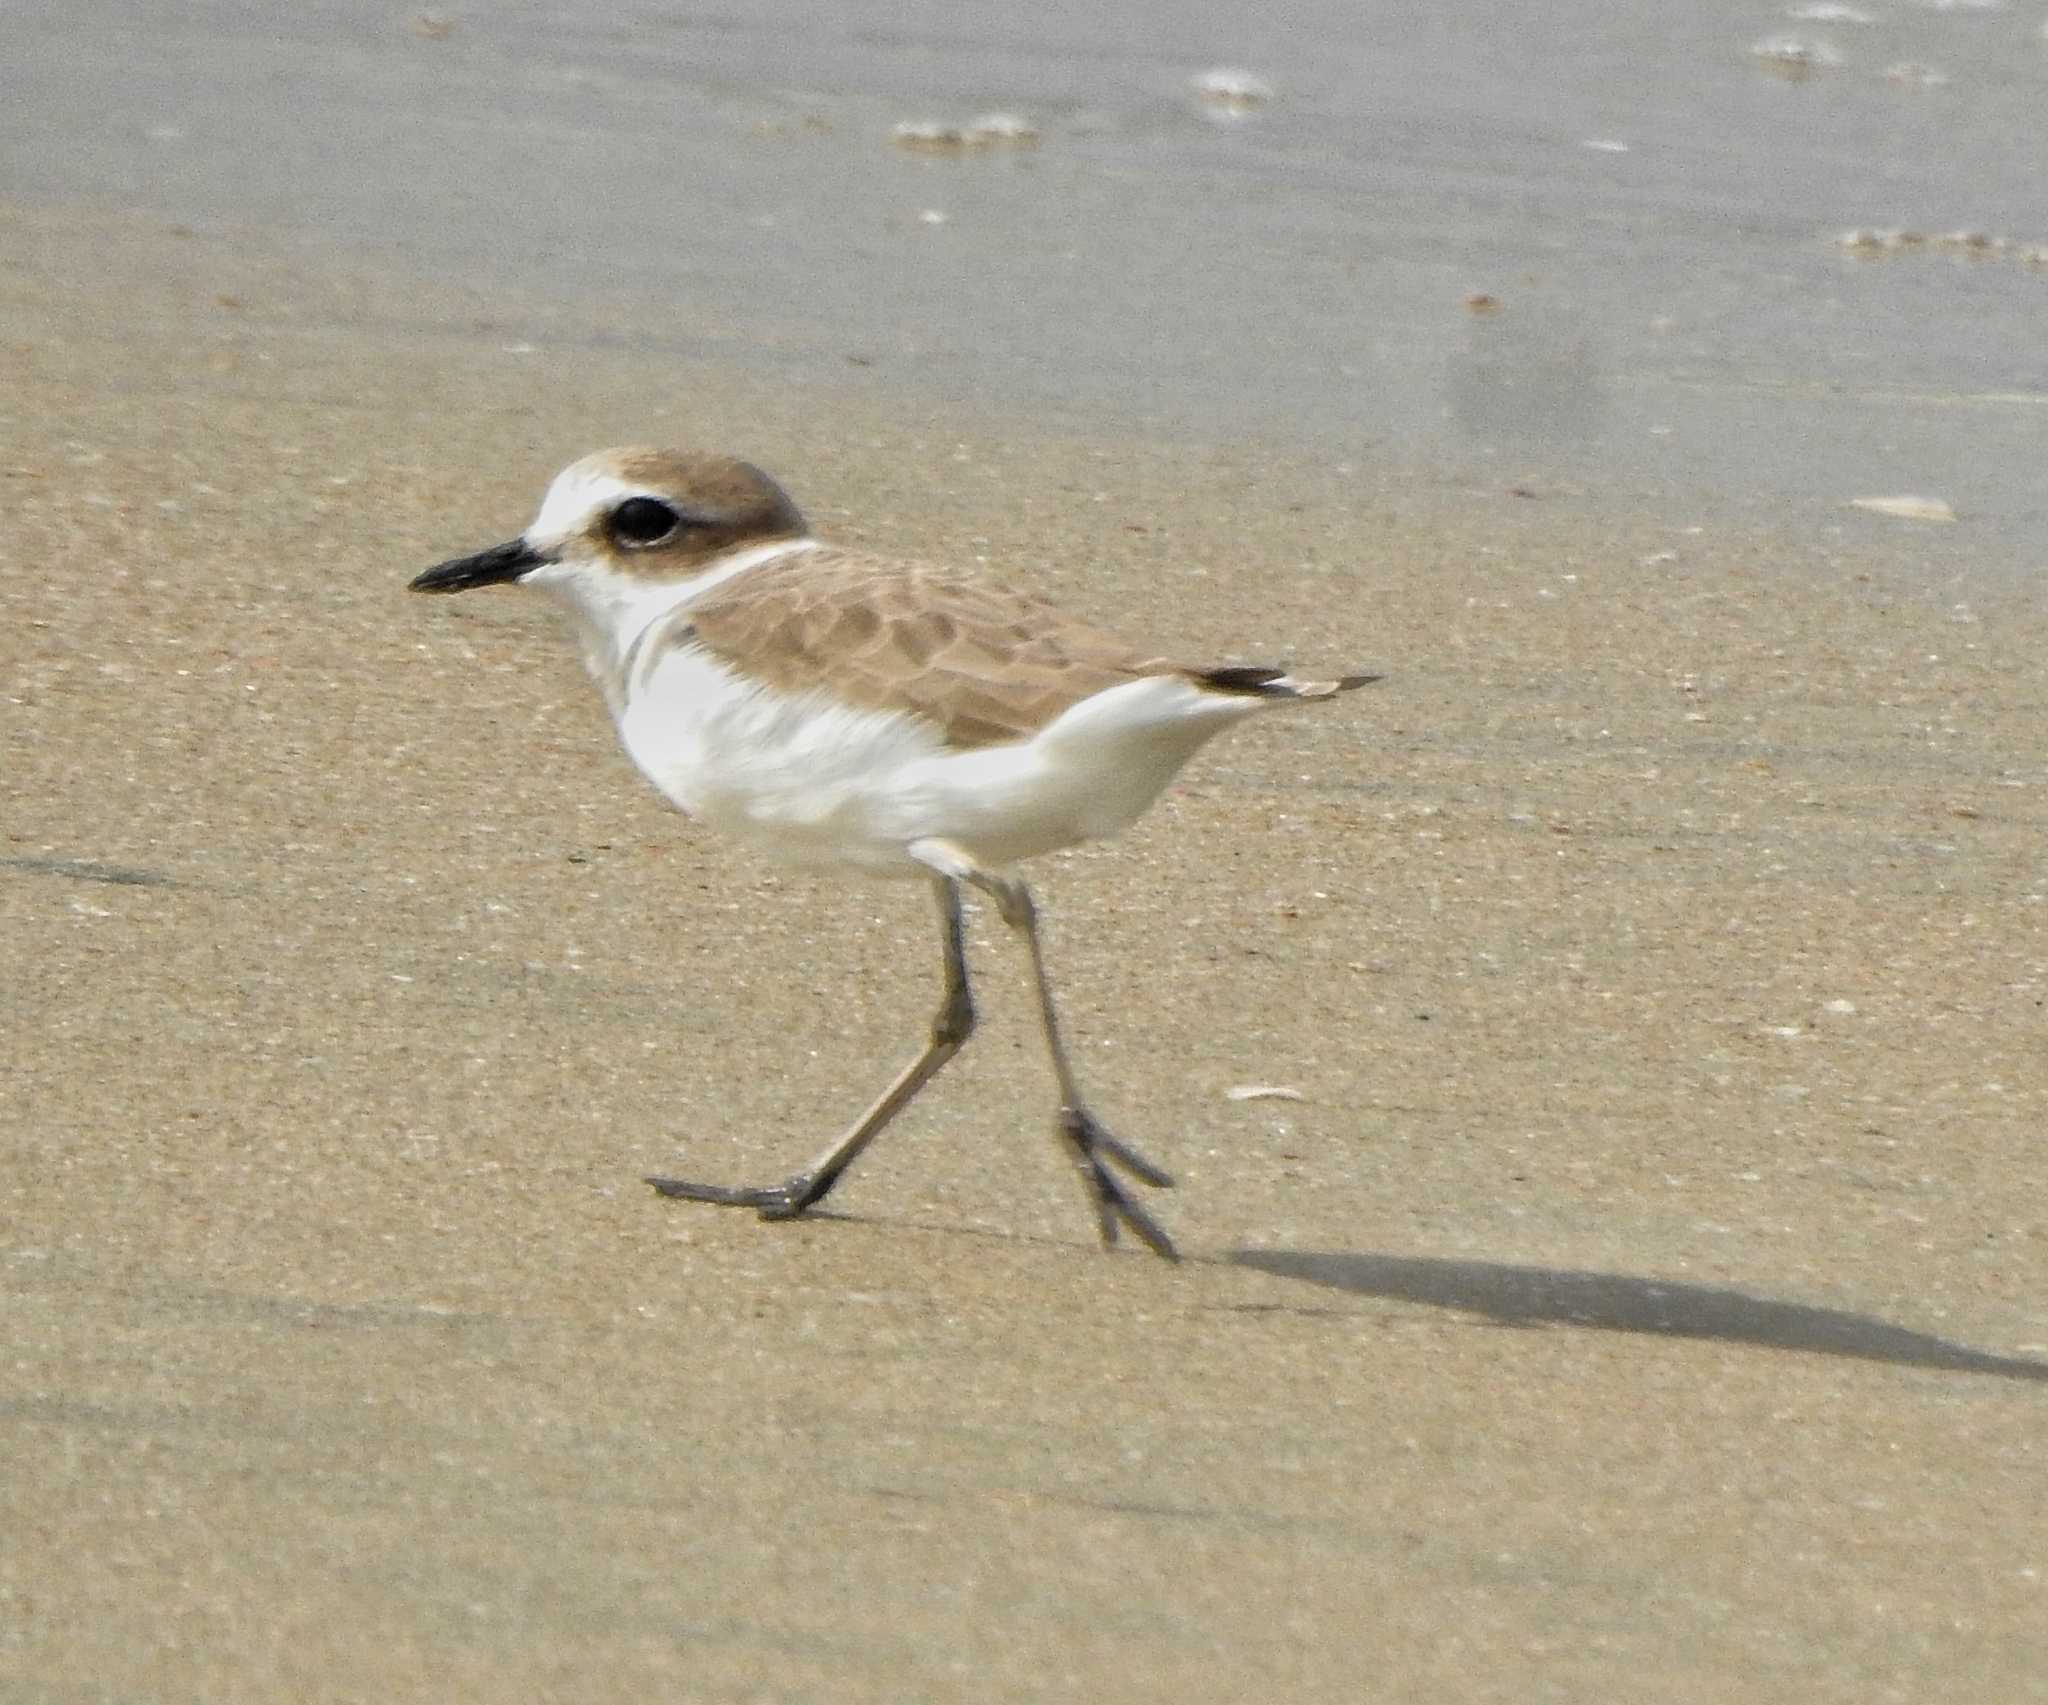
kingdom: Animalia
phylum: Chordata
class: Aves
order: Charadriiformes
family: Charadriidae
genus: Charadrius
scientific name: Charadrius alexandrinus
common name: Kentish plover
